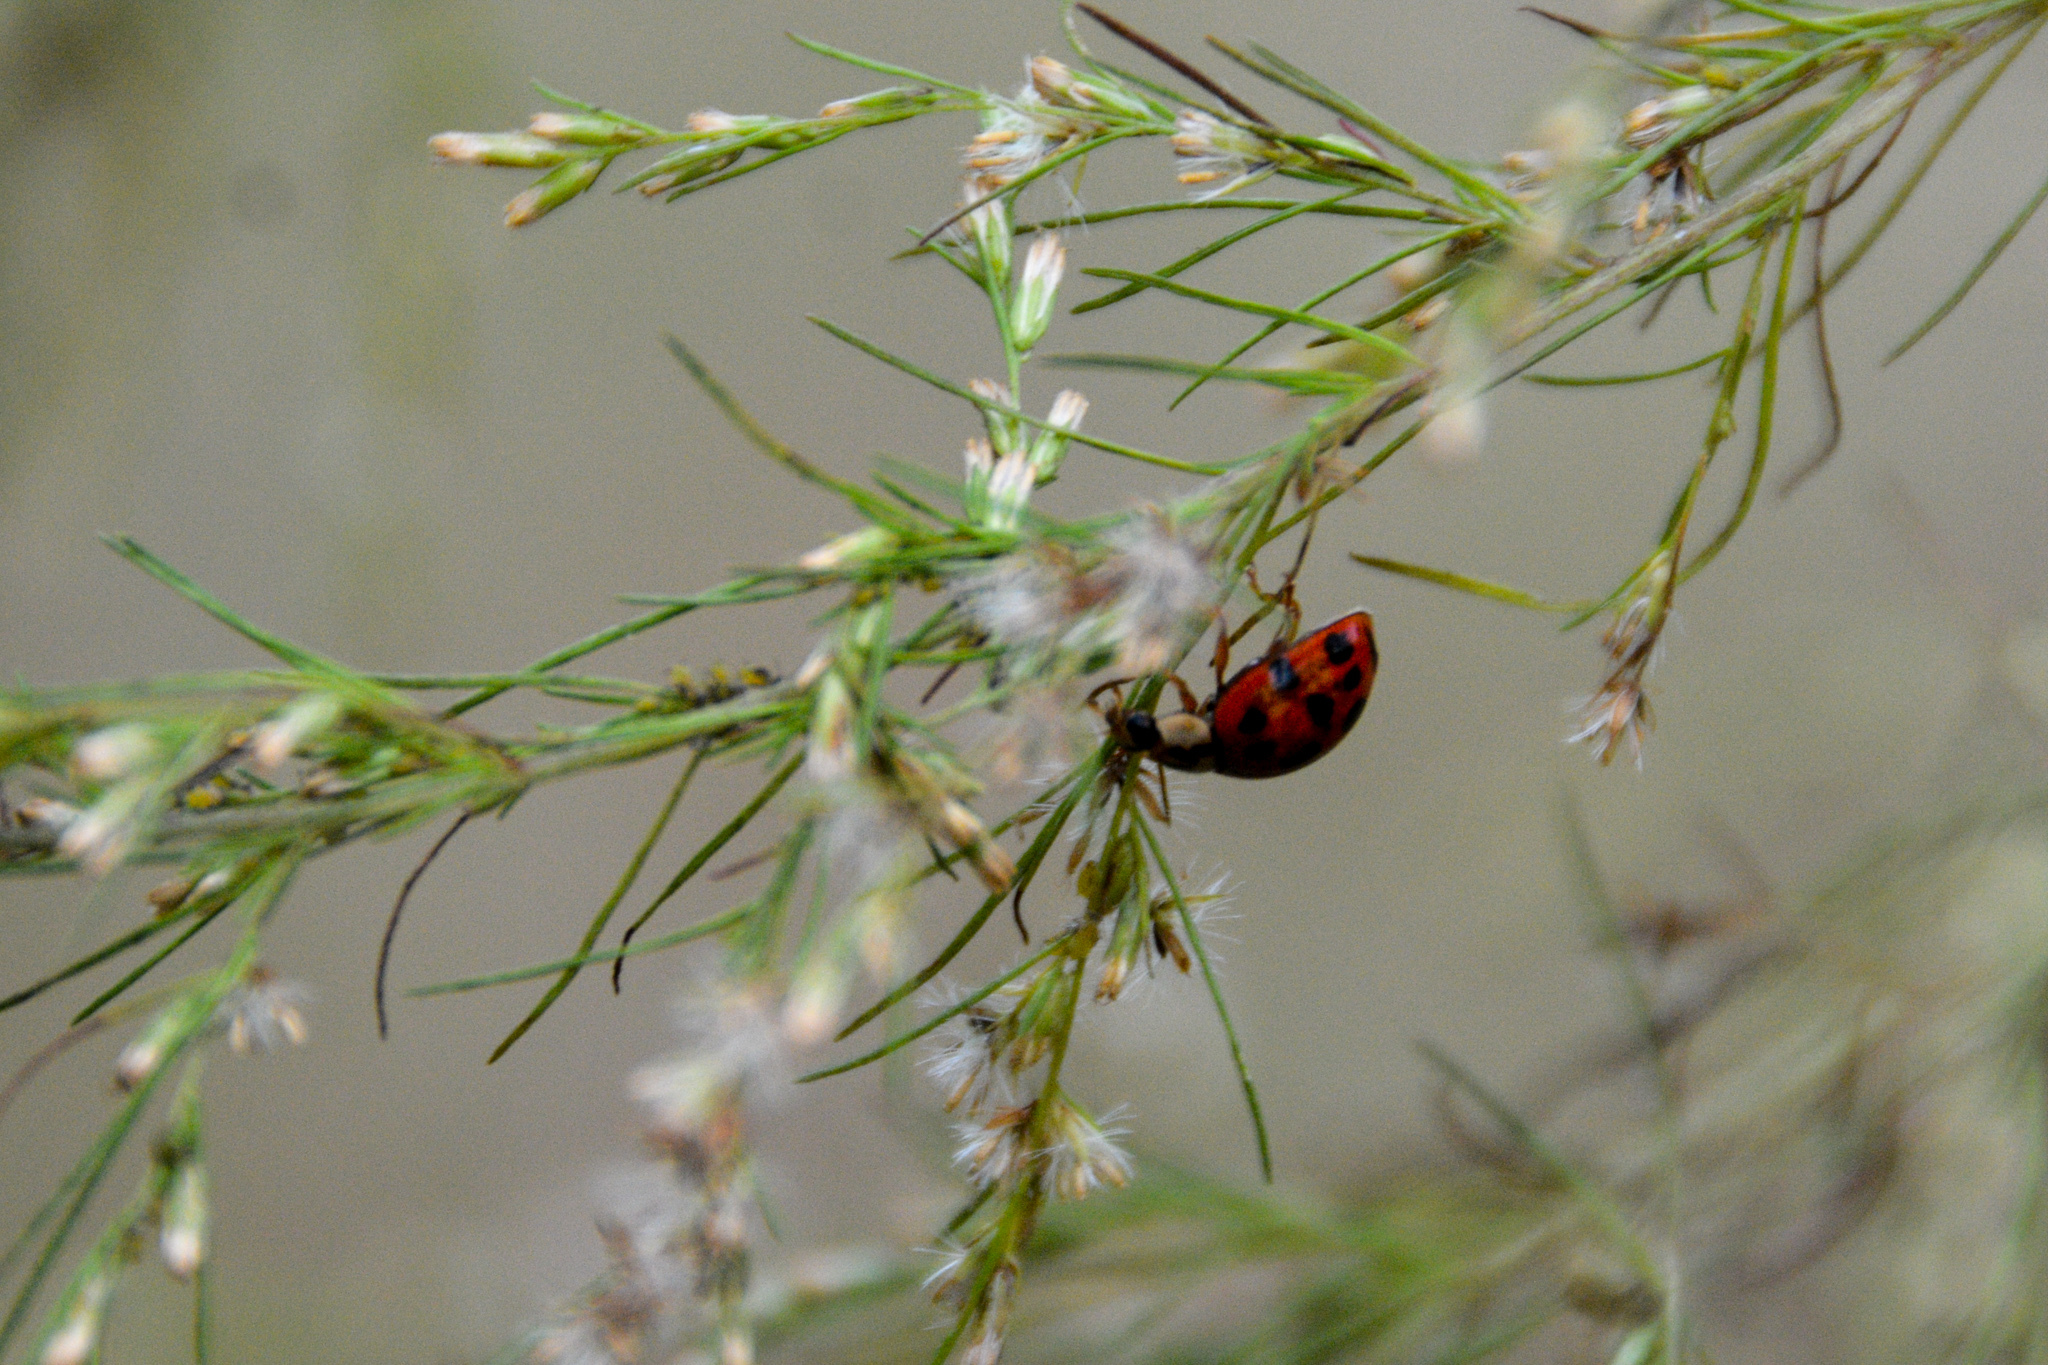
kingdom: Animalia
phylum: Arthropoda
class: Insecta
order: Coleoptera
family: Coccinellidae
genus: Harmonia
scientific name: Harmonia axyridis
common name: Harlequin ladybird
